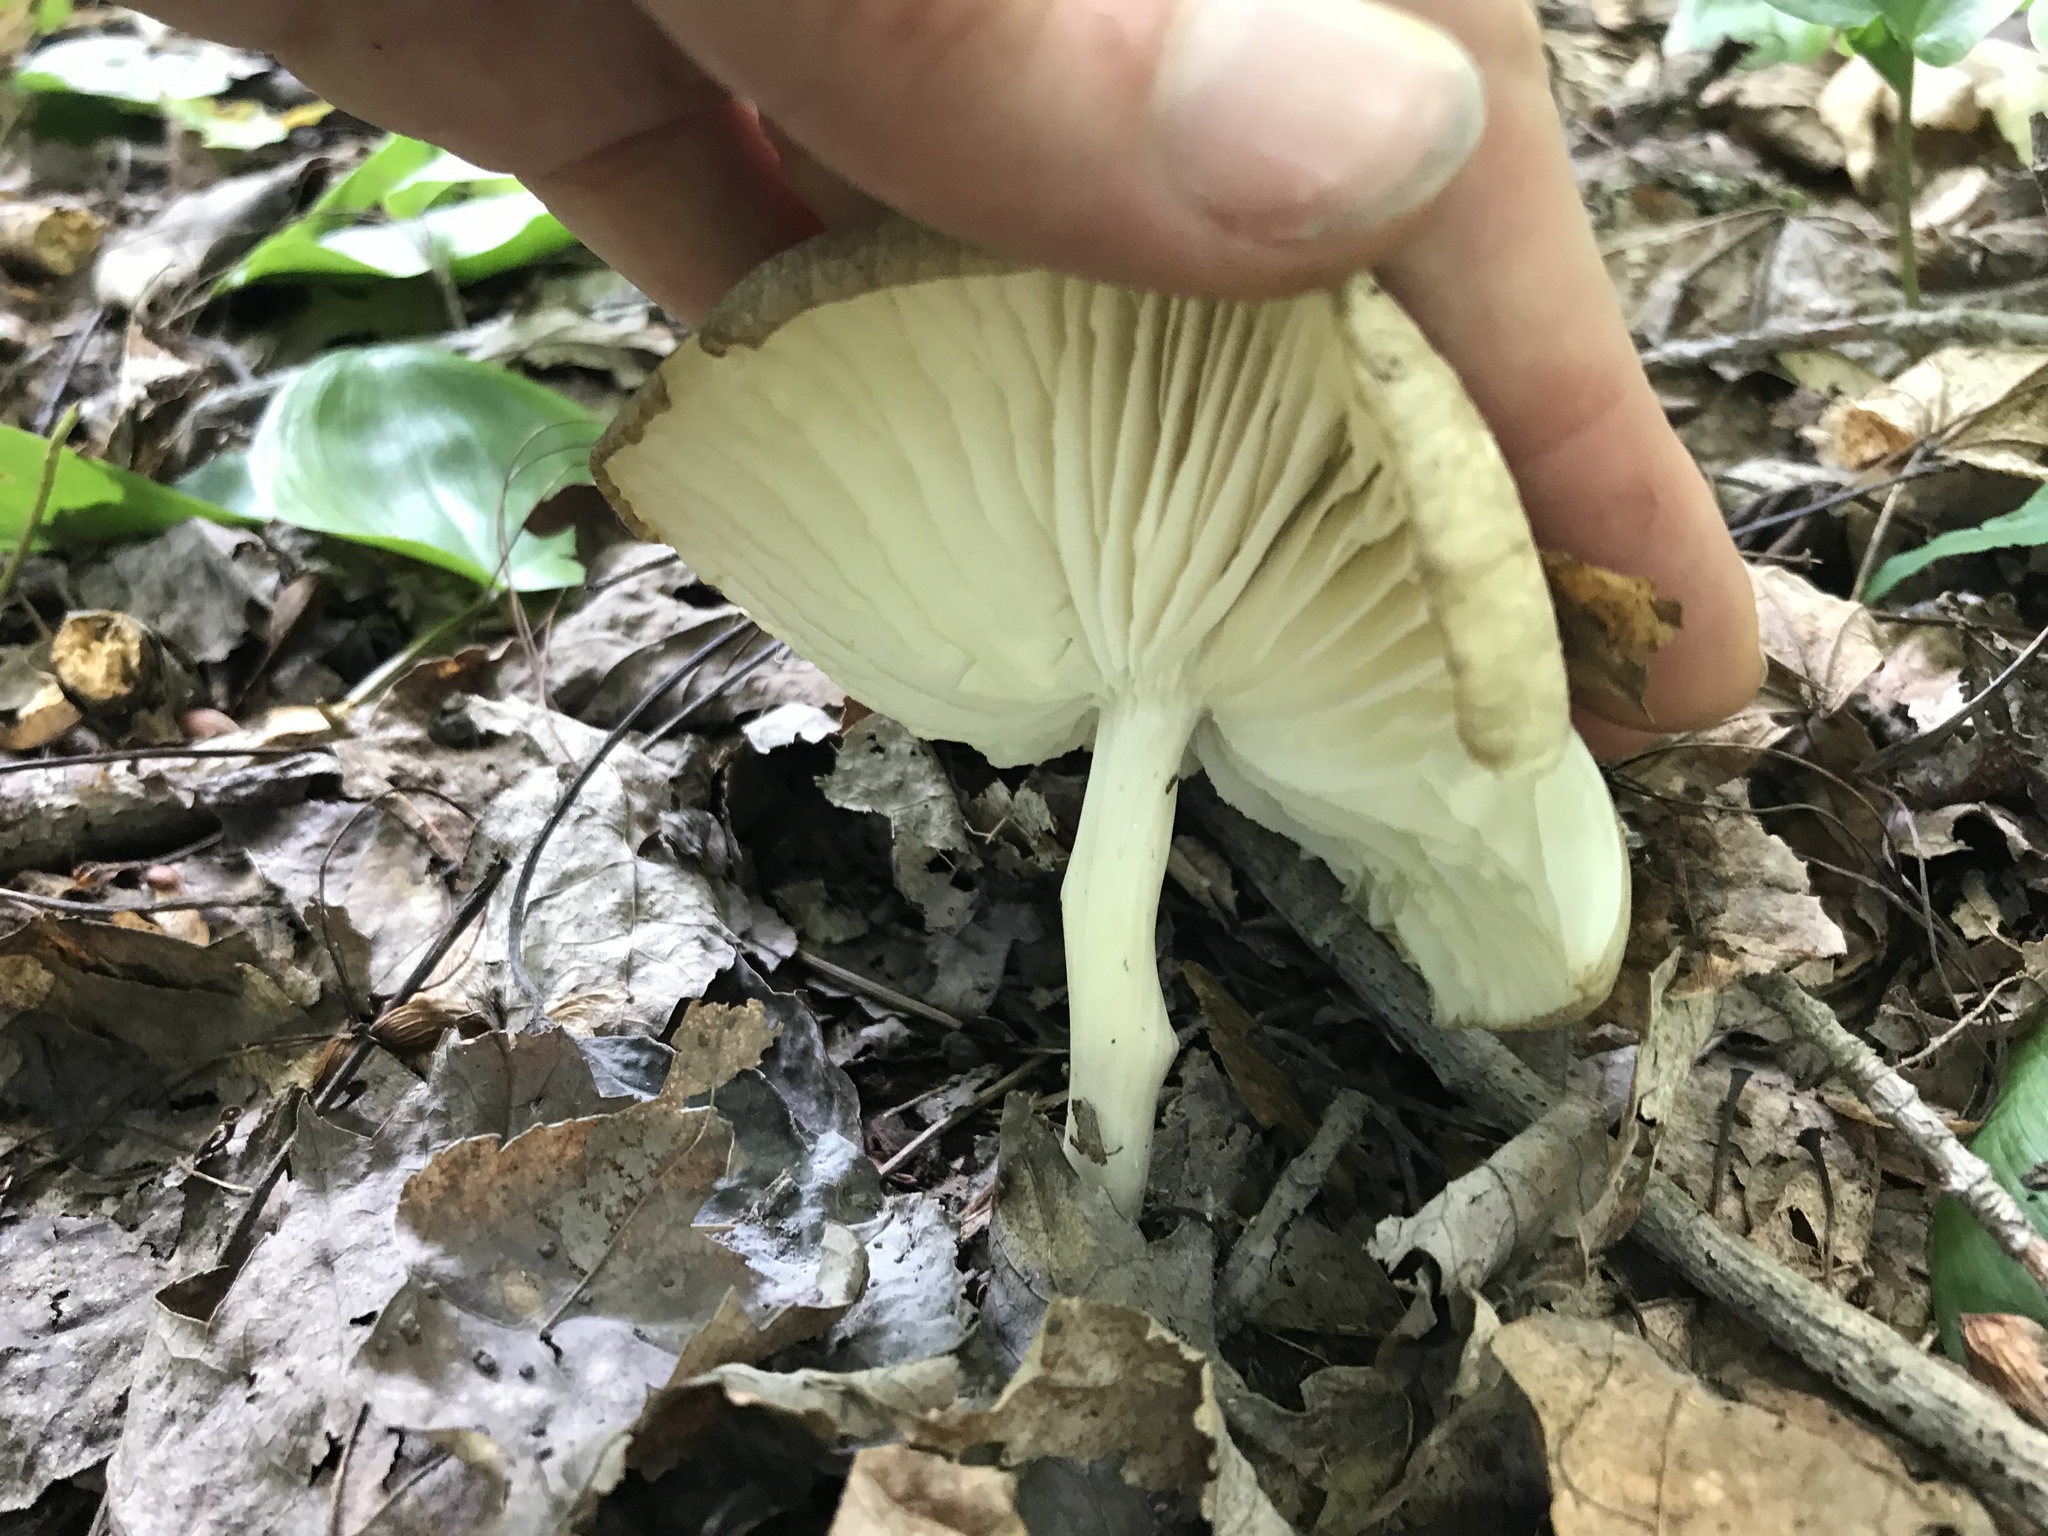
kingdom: Fungi
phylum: Basidiomycota
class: Agaricomycetes
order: Agaricales
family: Tricholomataceae
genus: Megacollybia
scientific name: Megacollybia rodmanii
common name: Eastern american platterful mushroom
